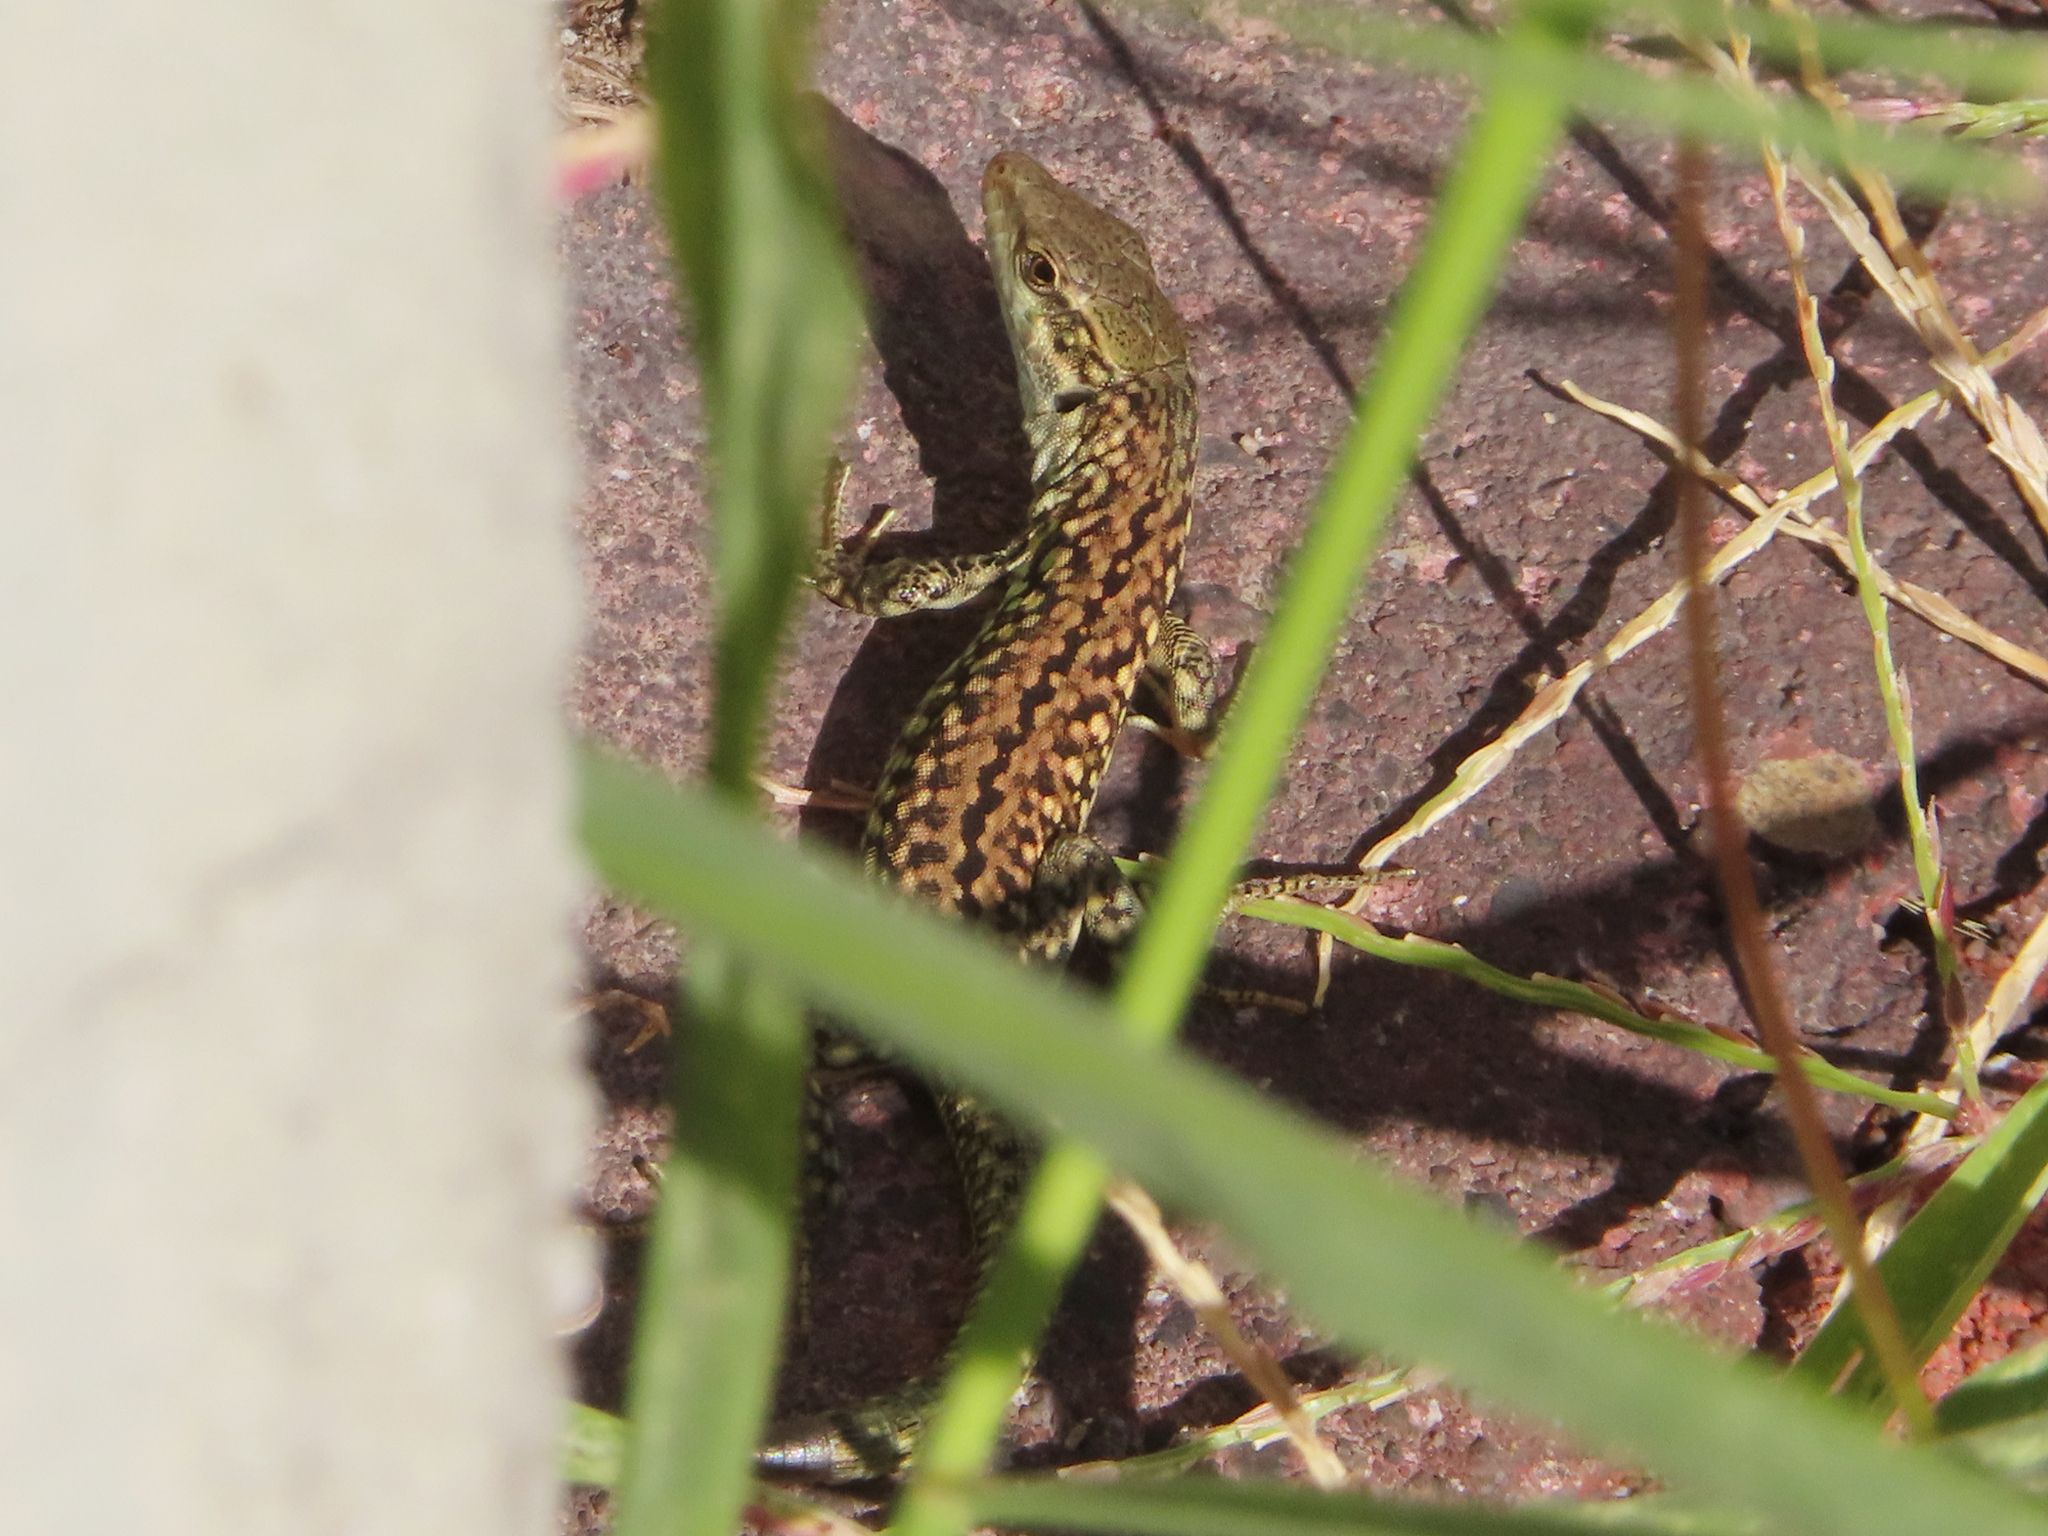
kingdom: Animalia
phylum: Chordata
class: Squamata
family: Lacertidae
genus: Podarcis
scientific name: Podarcis siculus
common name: Italian wall lizard
